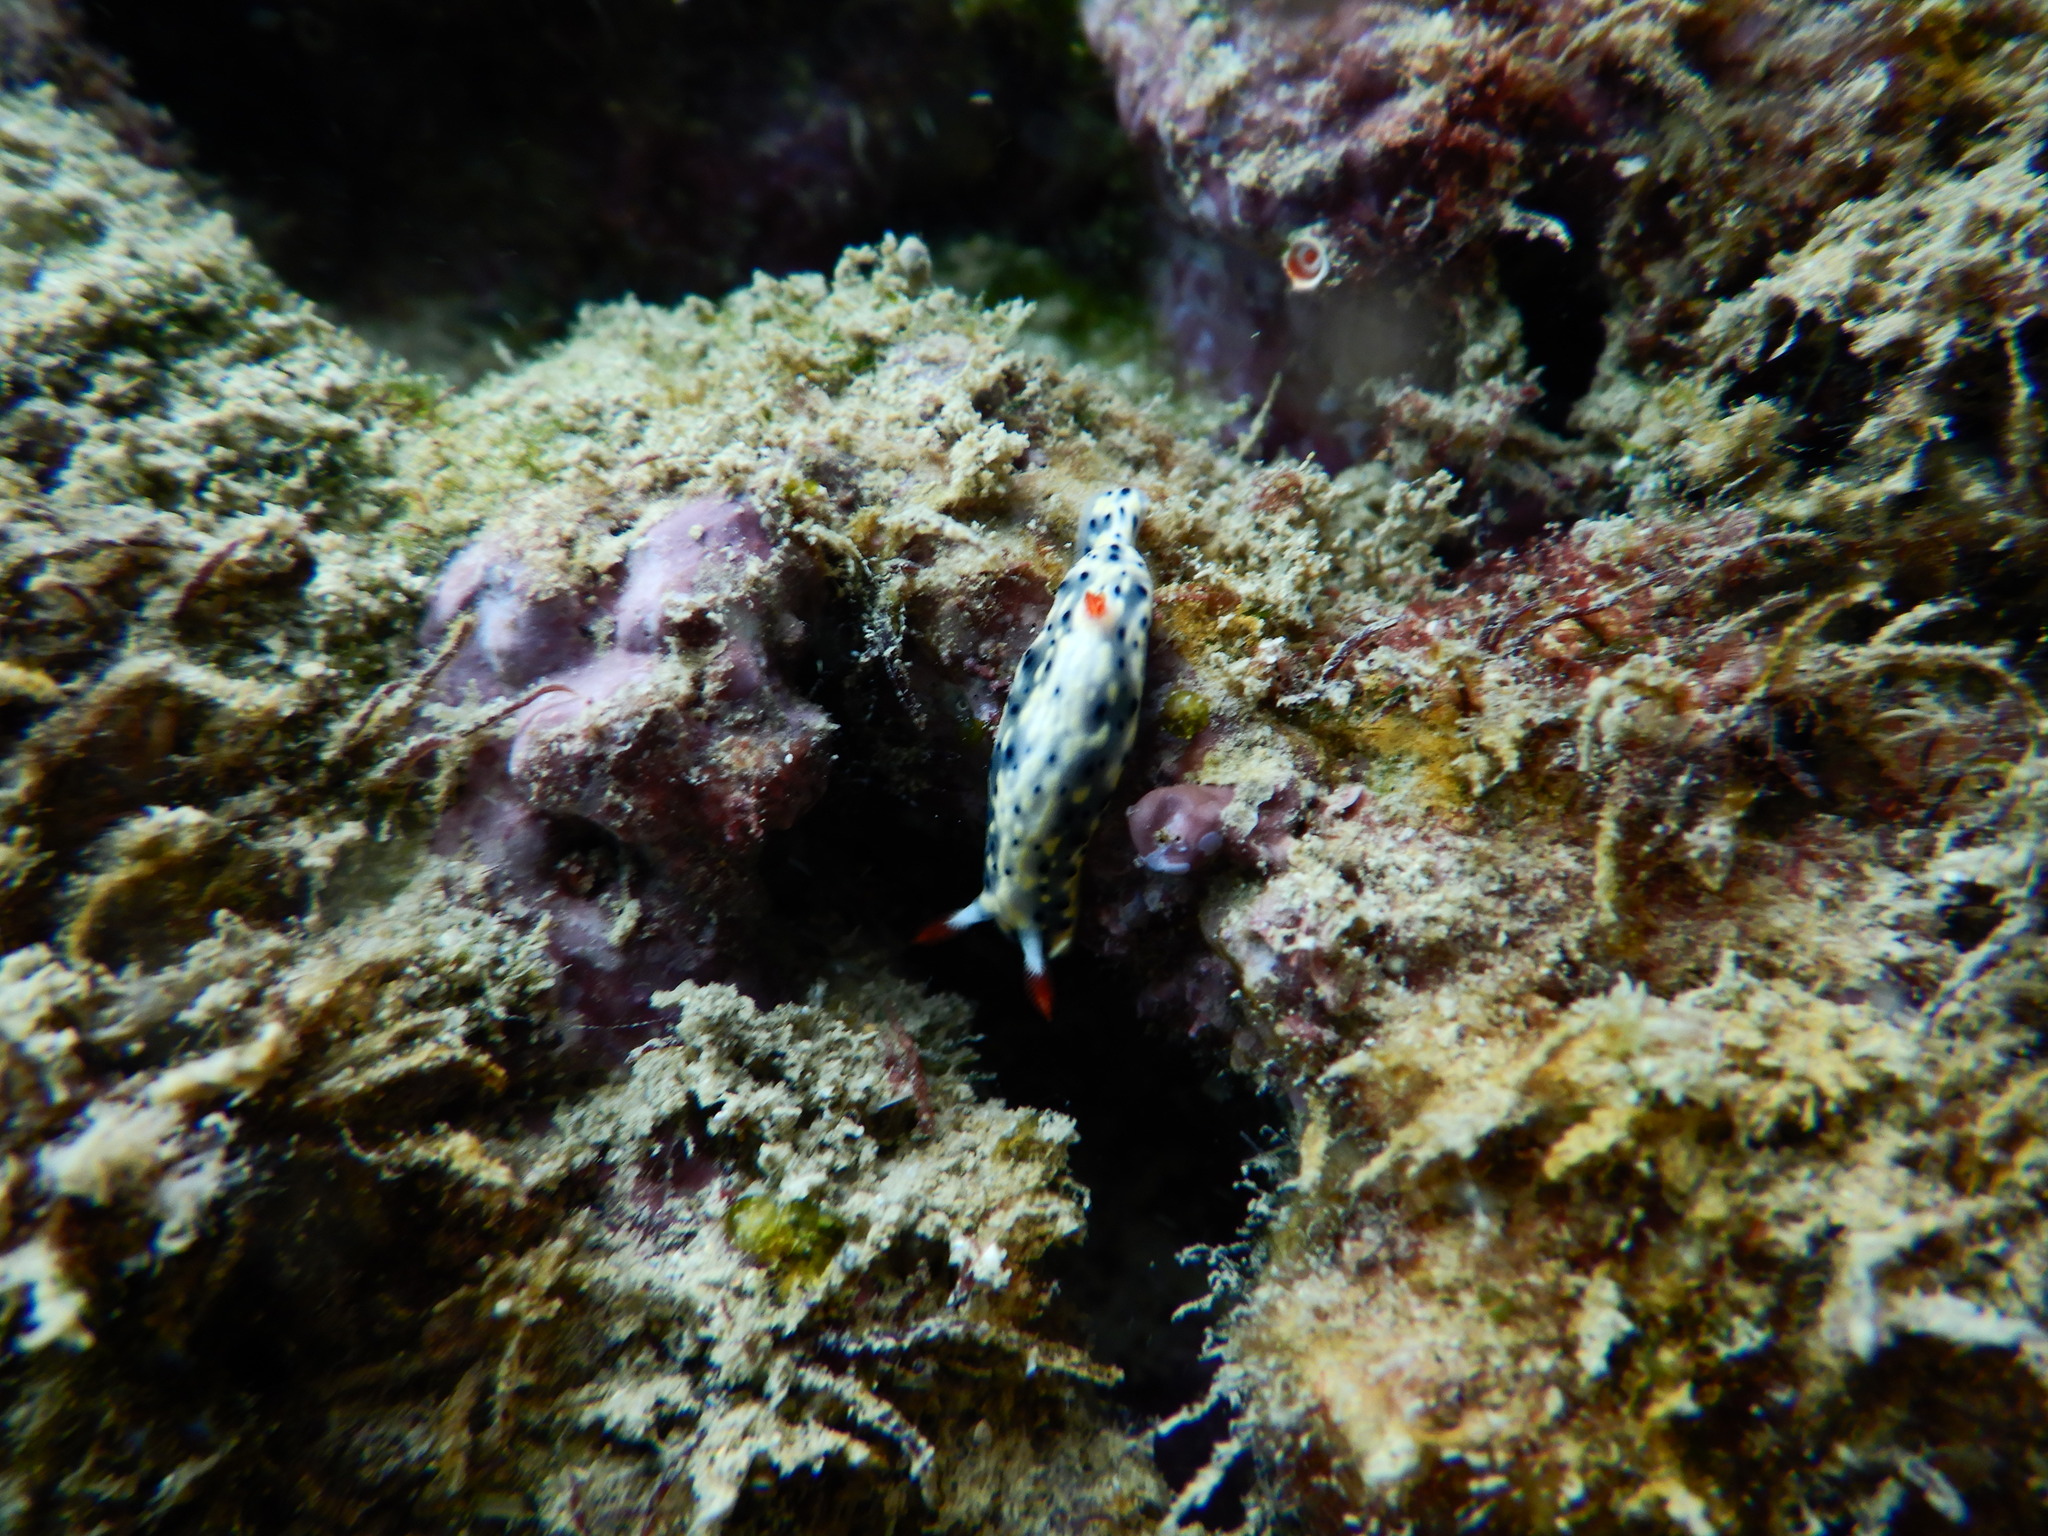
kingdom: Animalia
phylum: Mollusca
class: Gastropoda
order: Nudibranchia
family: Chromodorididae
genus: Hypselodoris
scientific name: Hypselodoris infucata
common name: Mottled dorid
